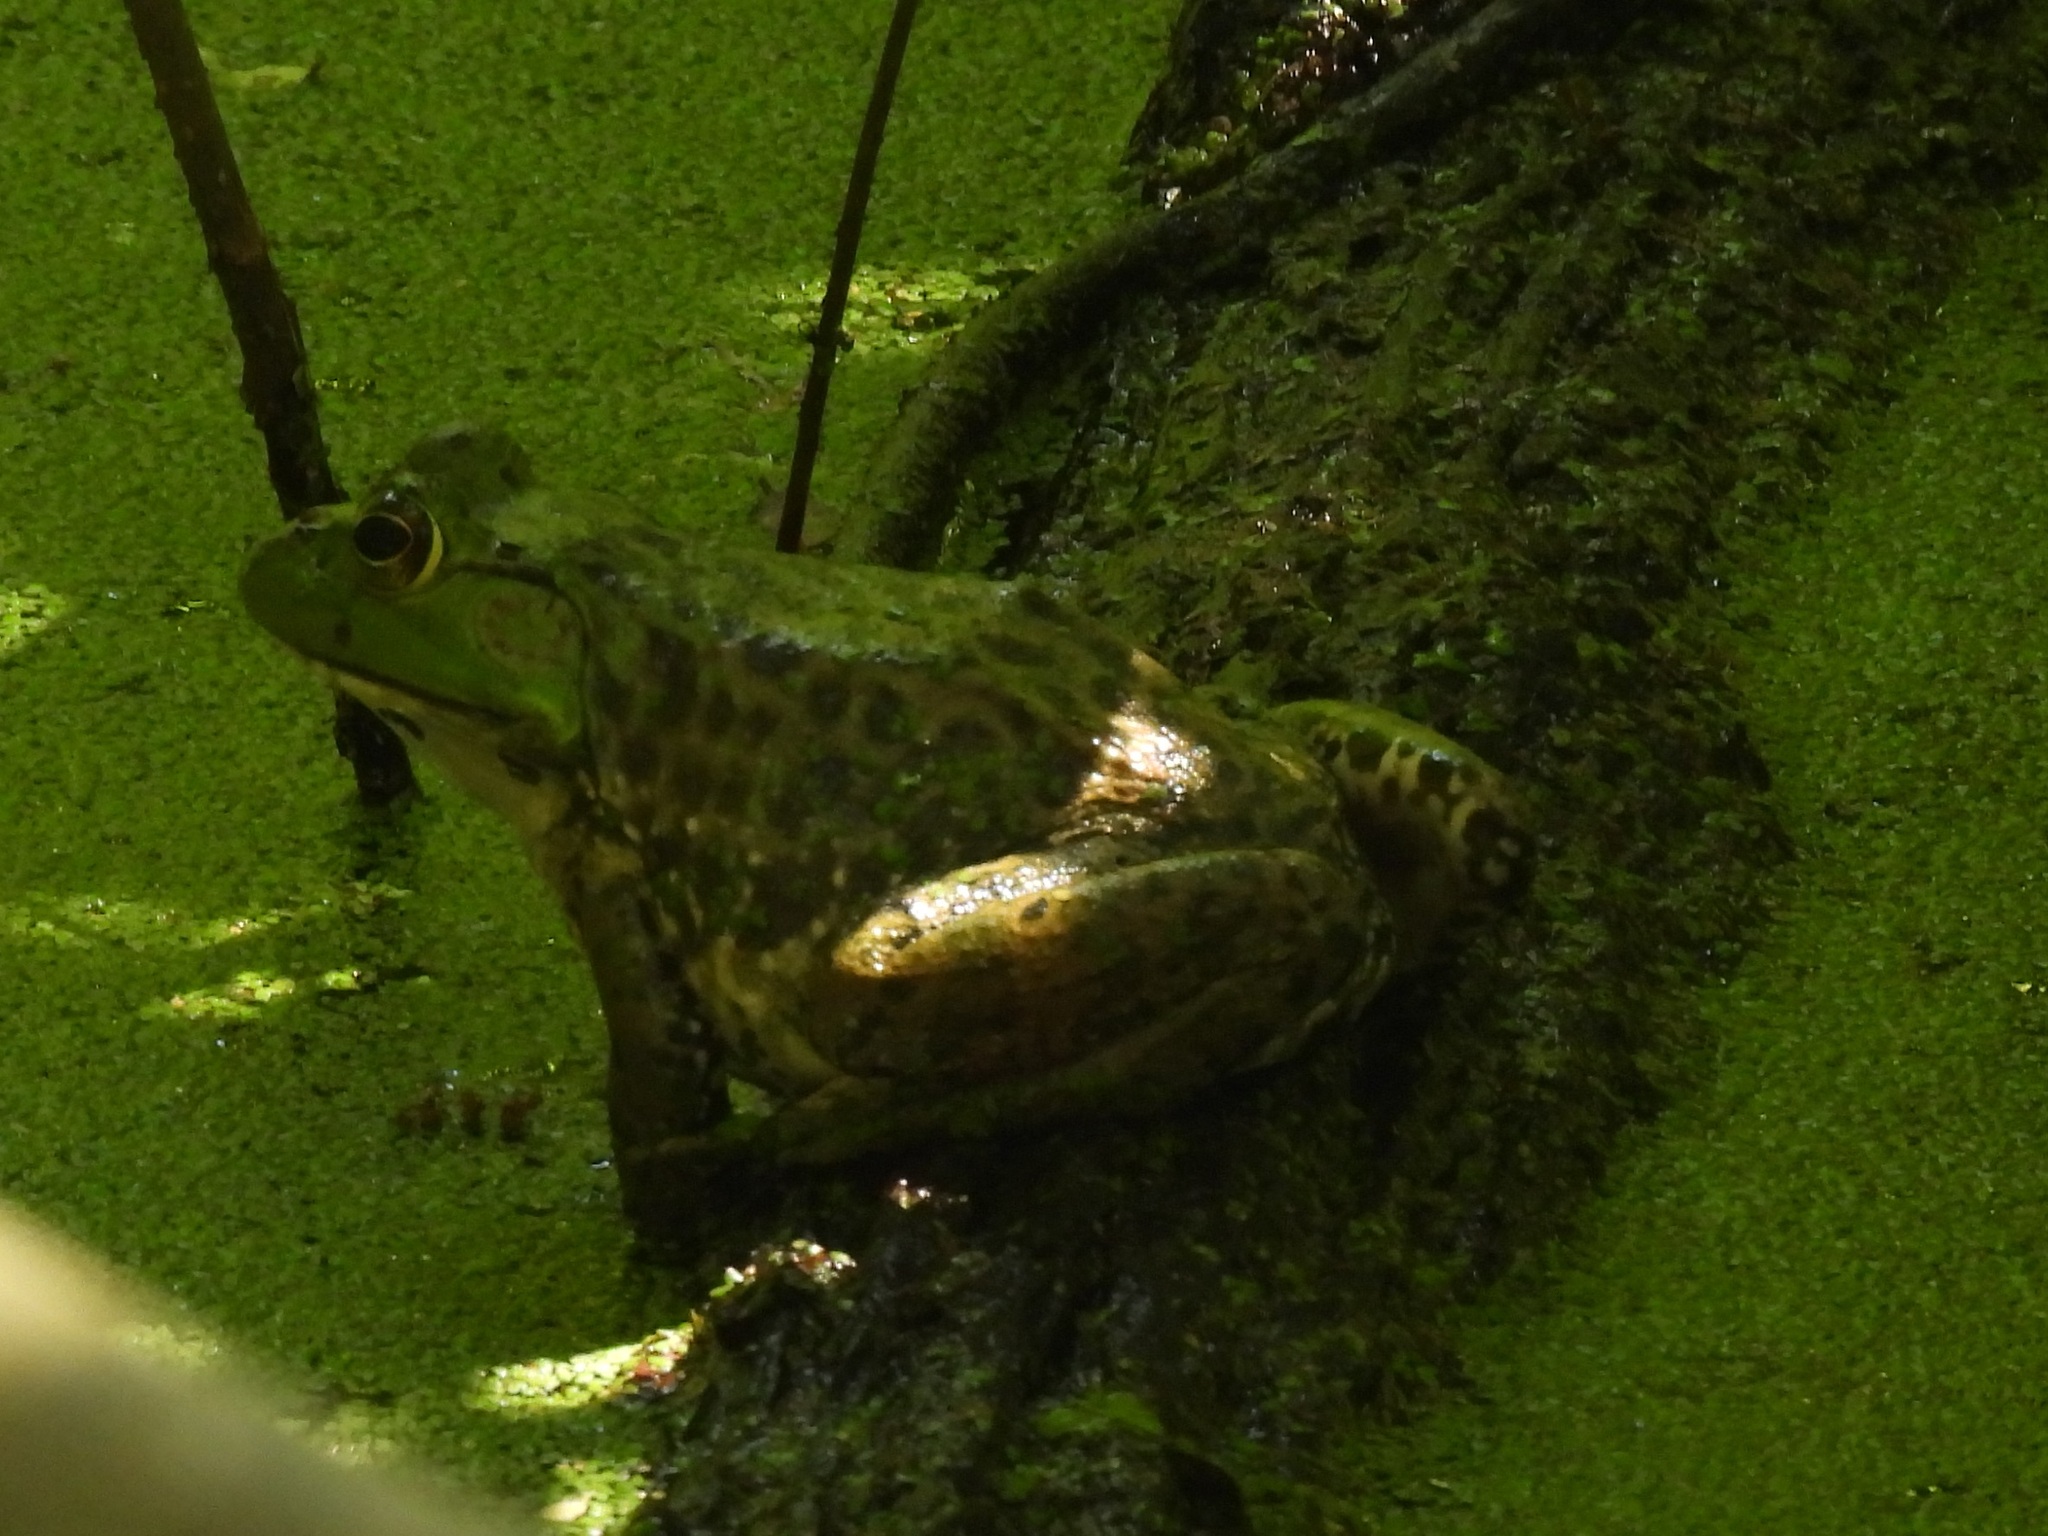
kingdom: Animalia
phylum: Chordata
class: Amphibia
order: Anura
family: Ranidae
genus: Lithobates
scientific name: Lithobates catesbeianus
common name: American bullfrog
